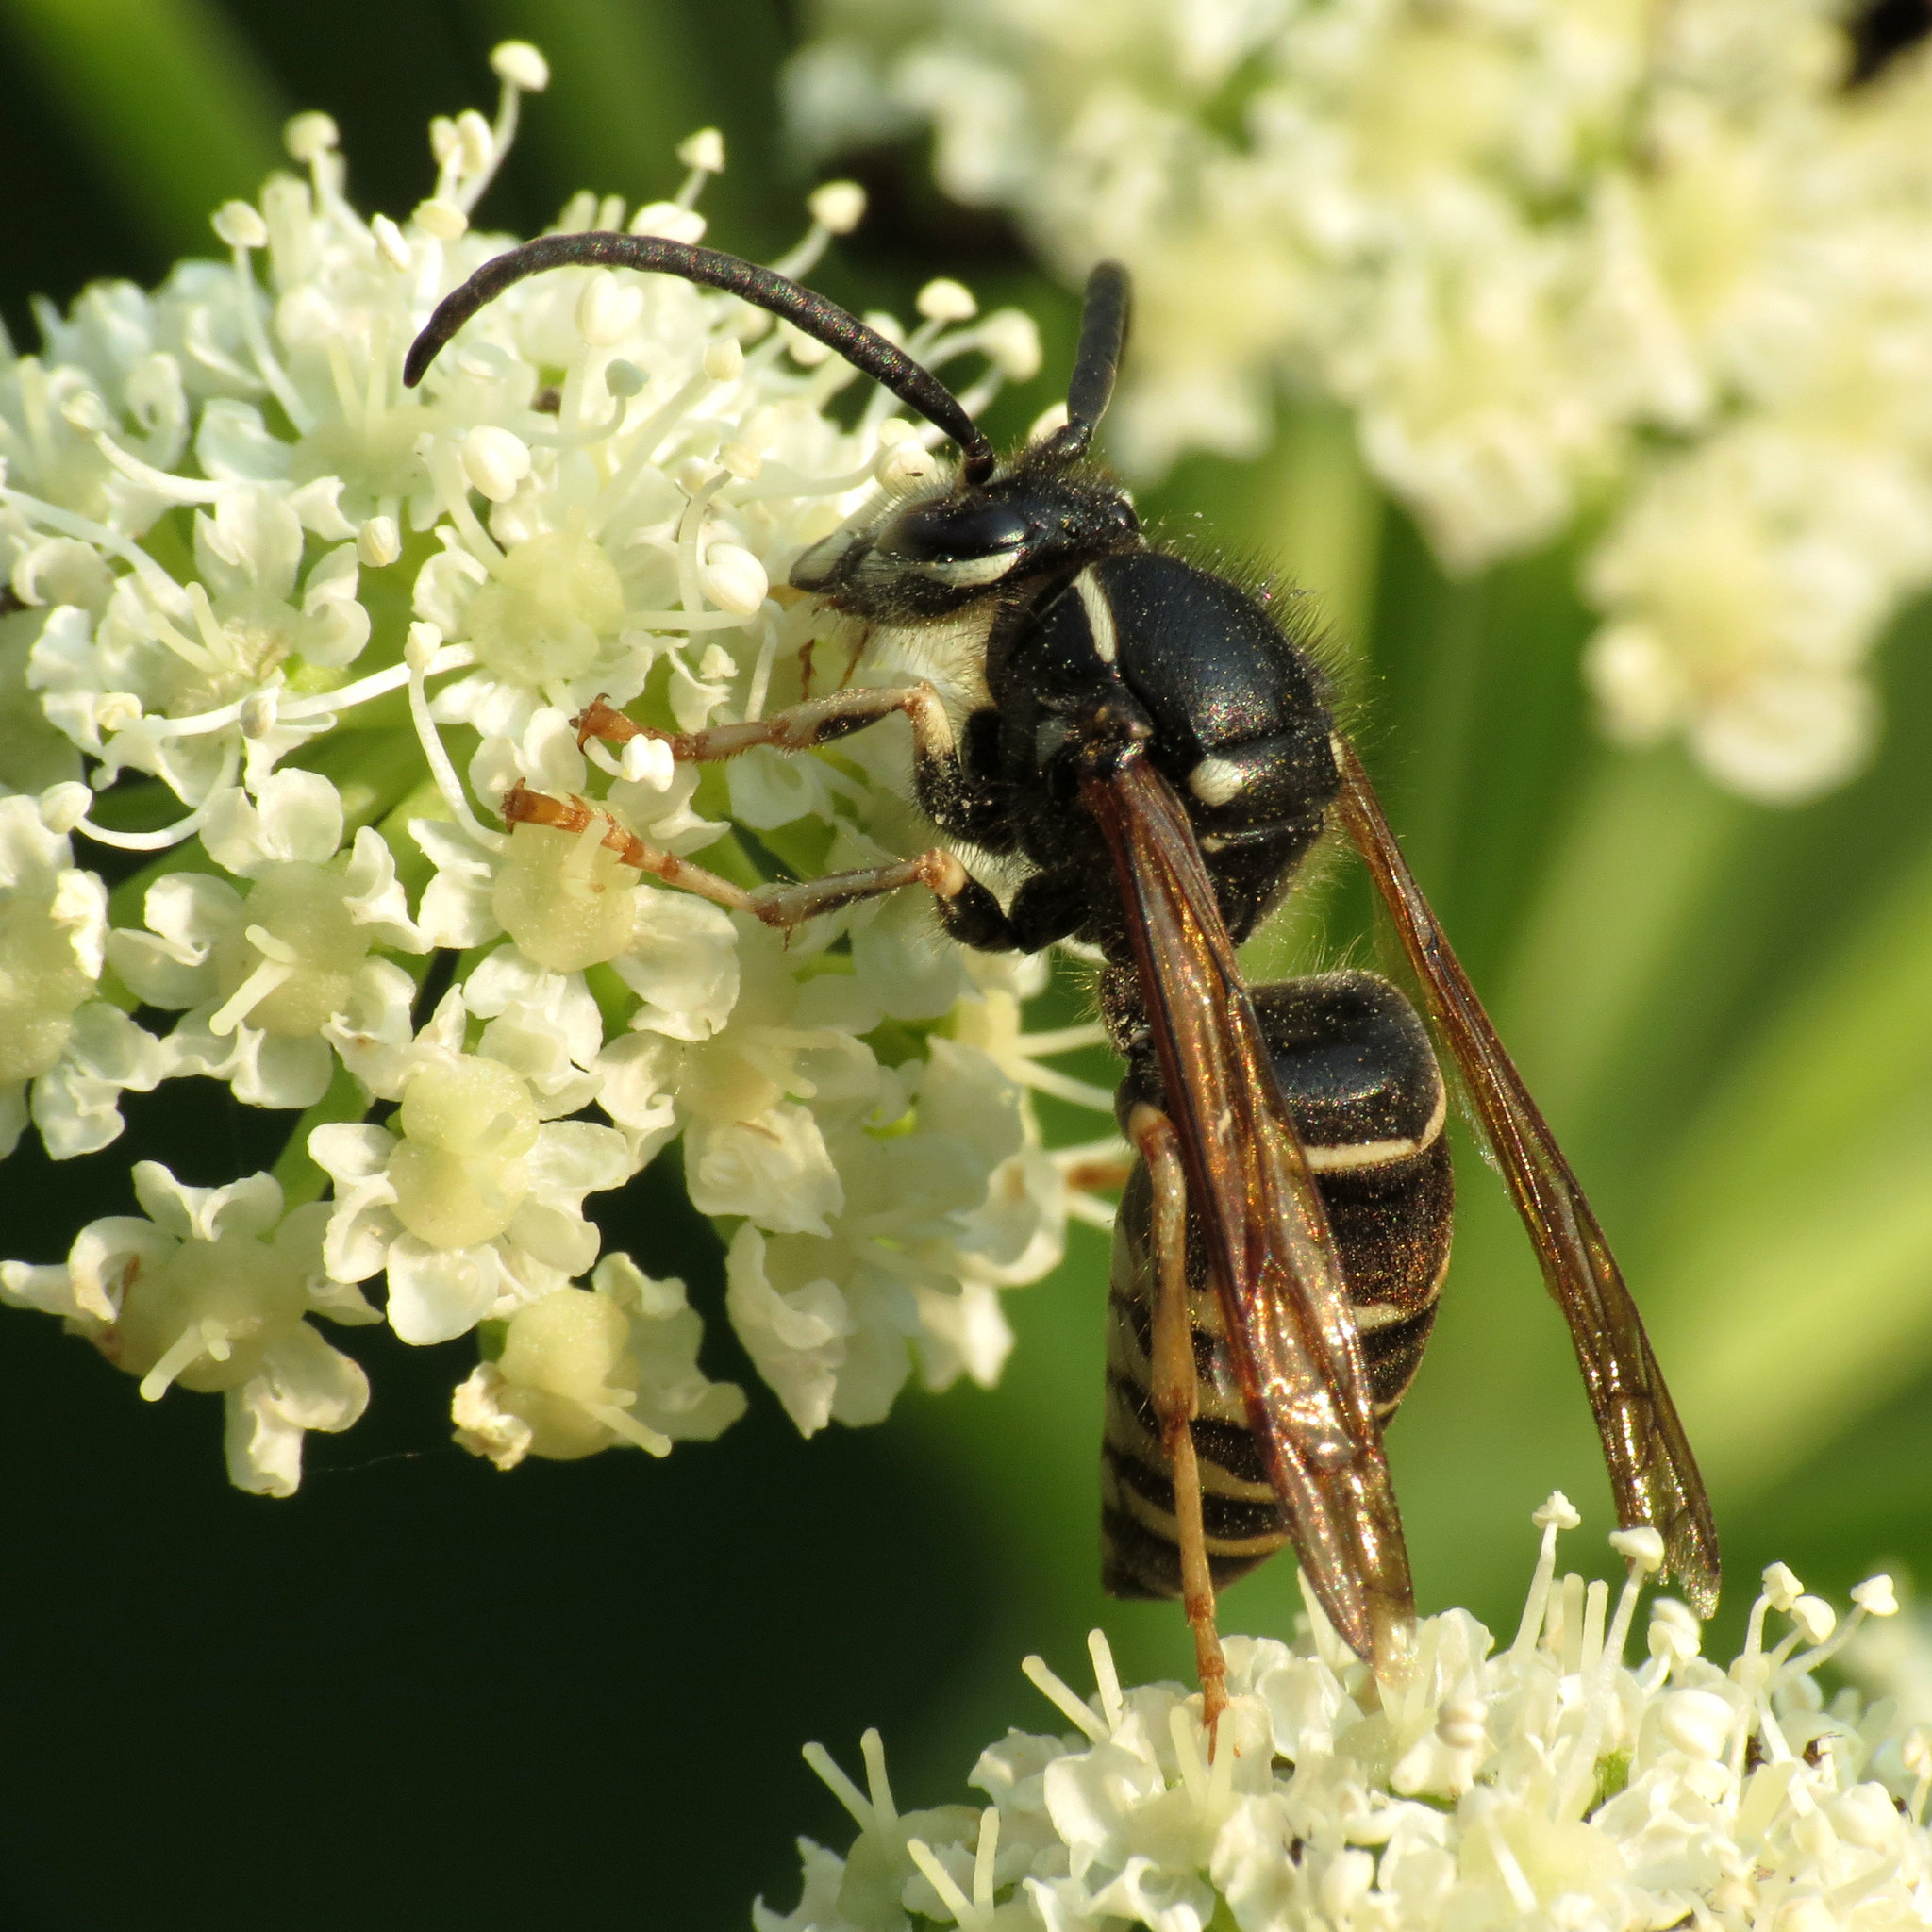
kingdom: Animalia
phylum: Arthropoda
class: Insecta
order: Hymenoptera
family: Vespidae
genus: Dolichovespula
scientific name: Dolichovespula adulterina
